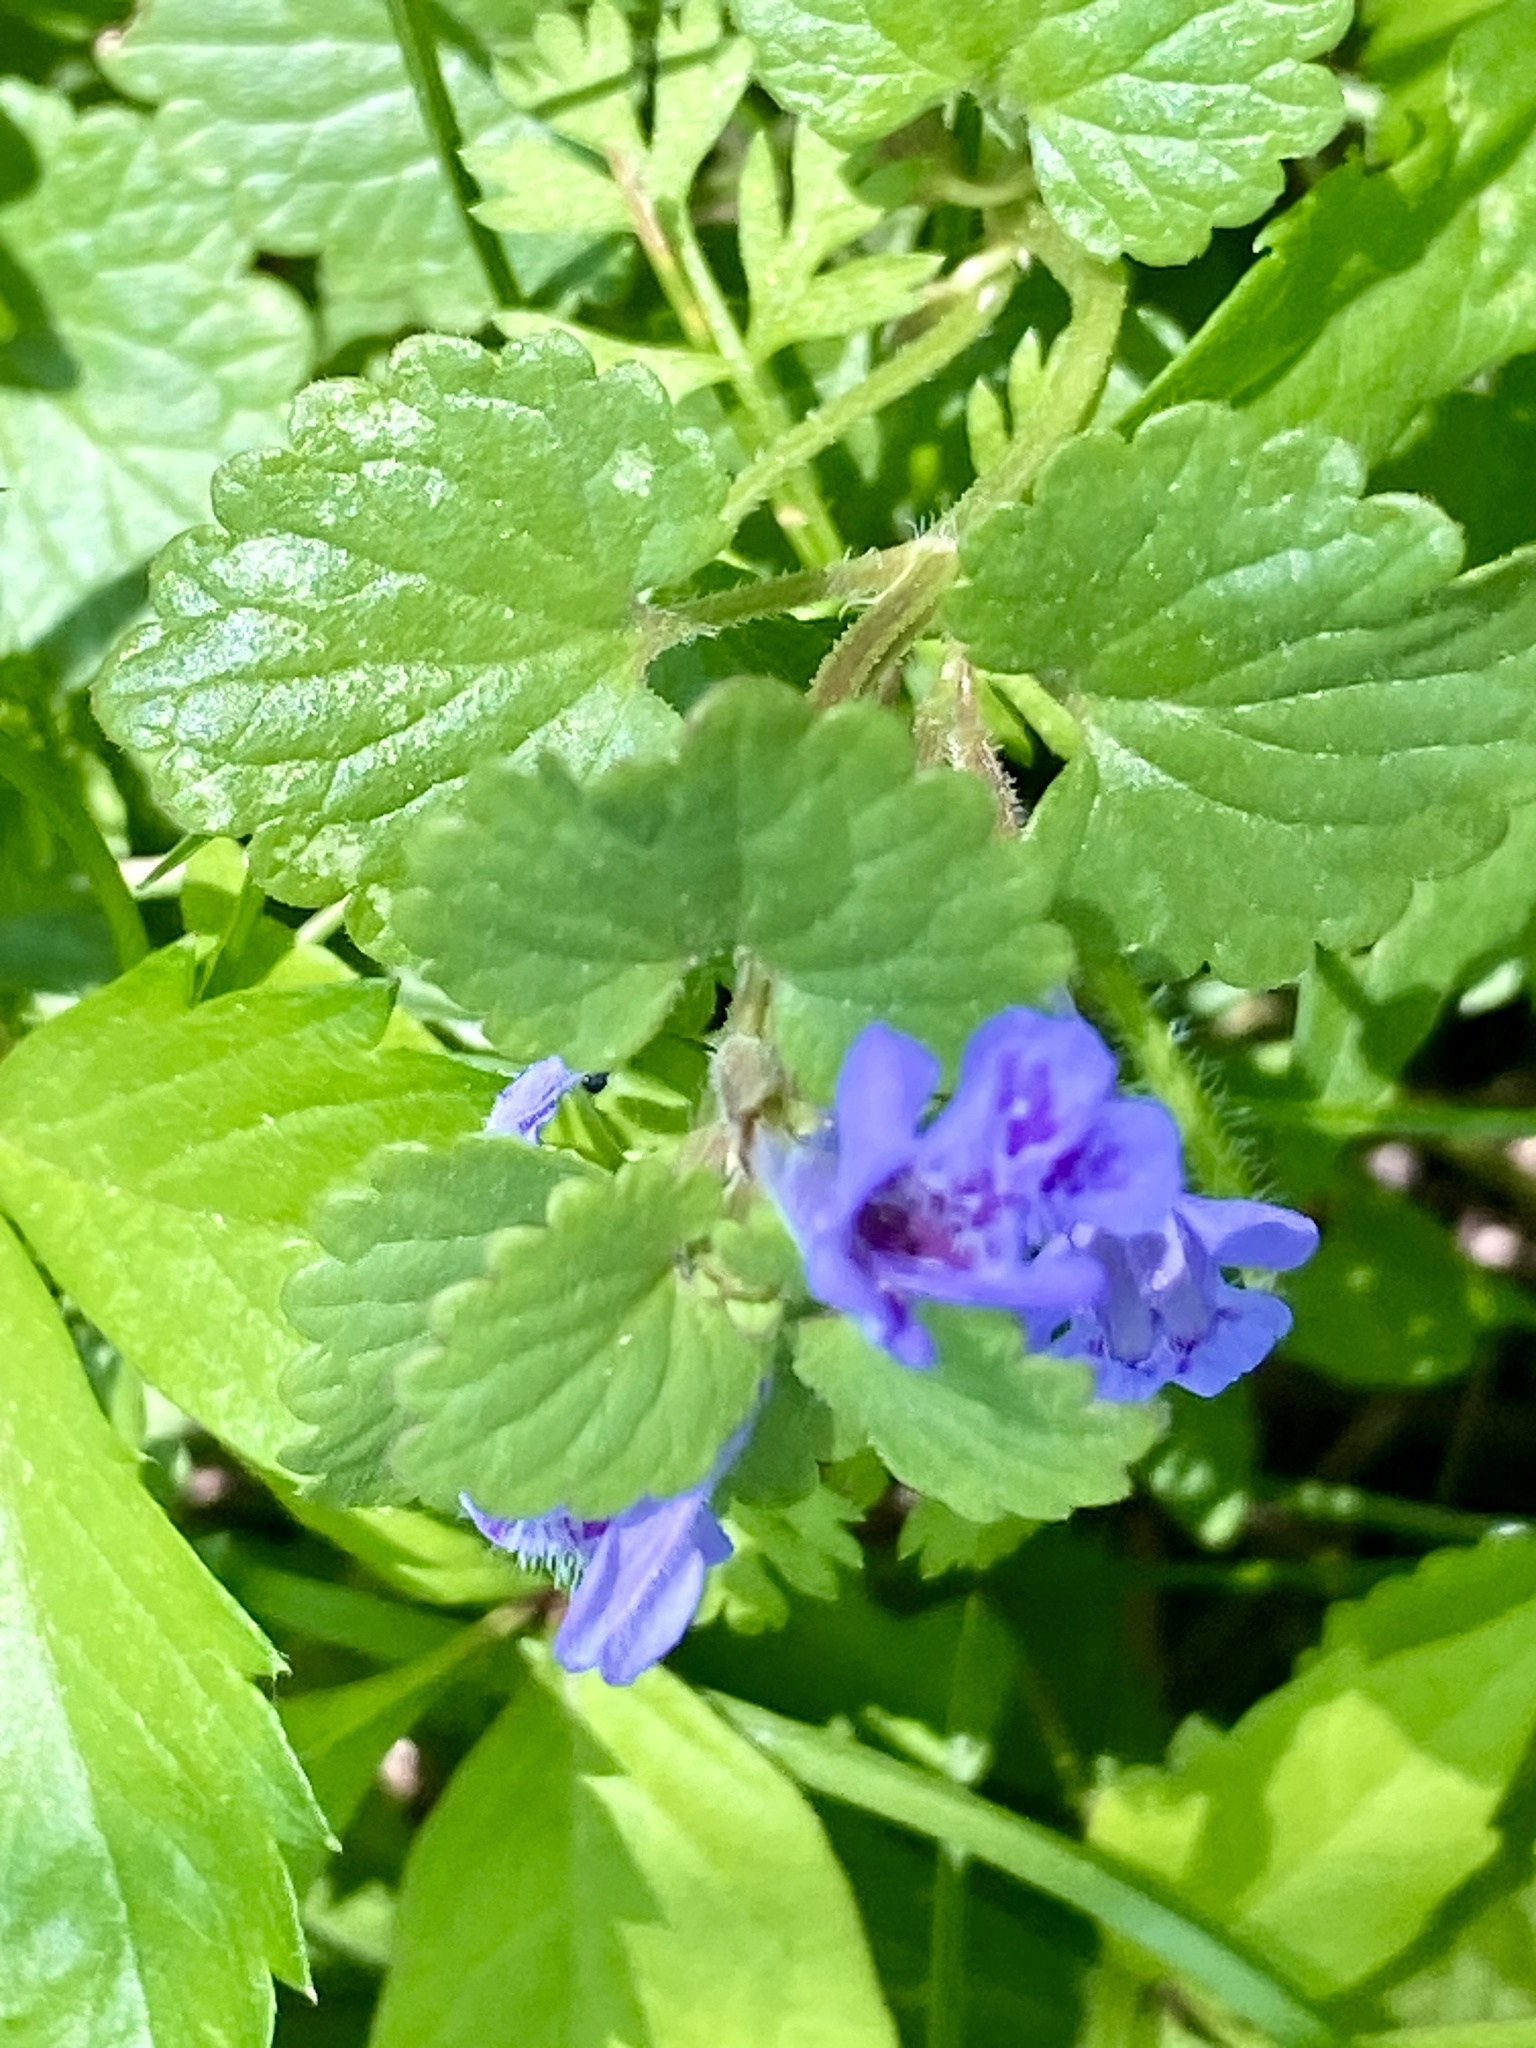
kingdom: Plantae
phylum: Tracheophyta
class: Magnoliopsida
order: Lamiales
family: Lamiaceae
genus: Glechoma
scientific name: Glechoma hederacea
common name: Ground ivy
